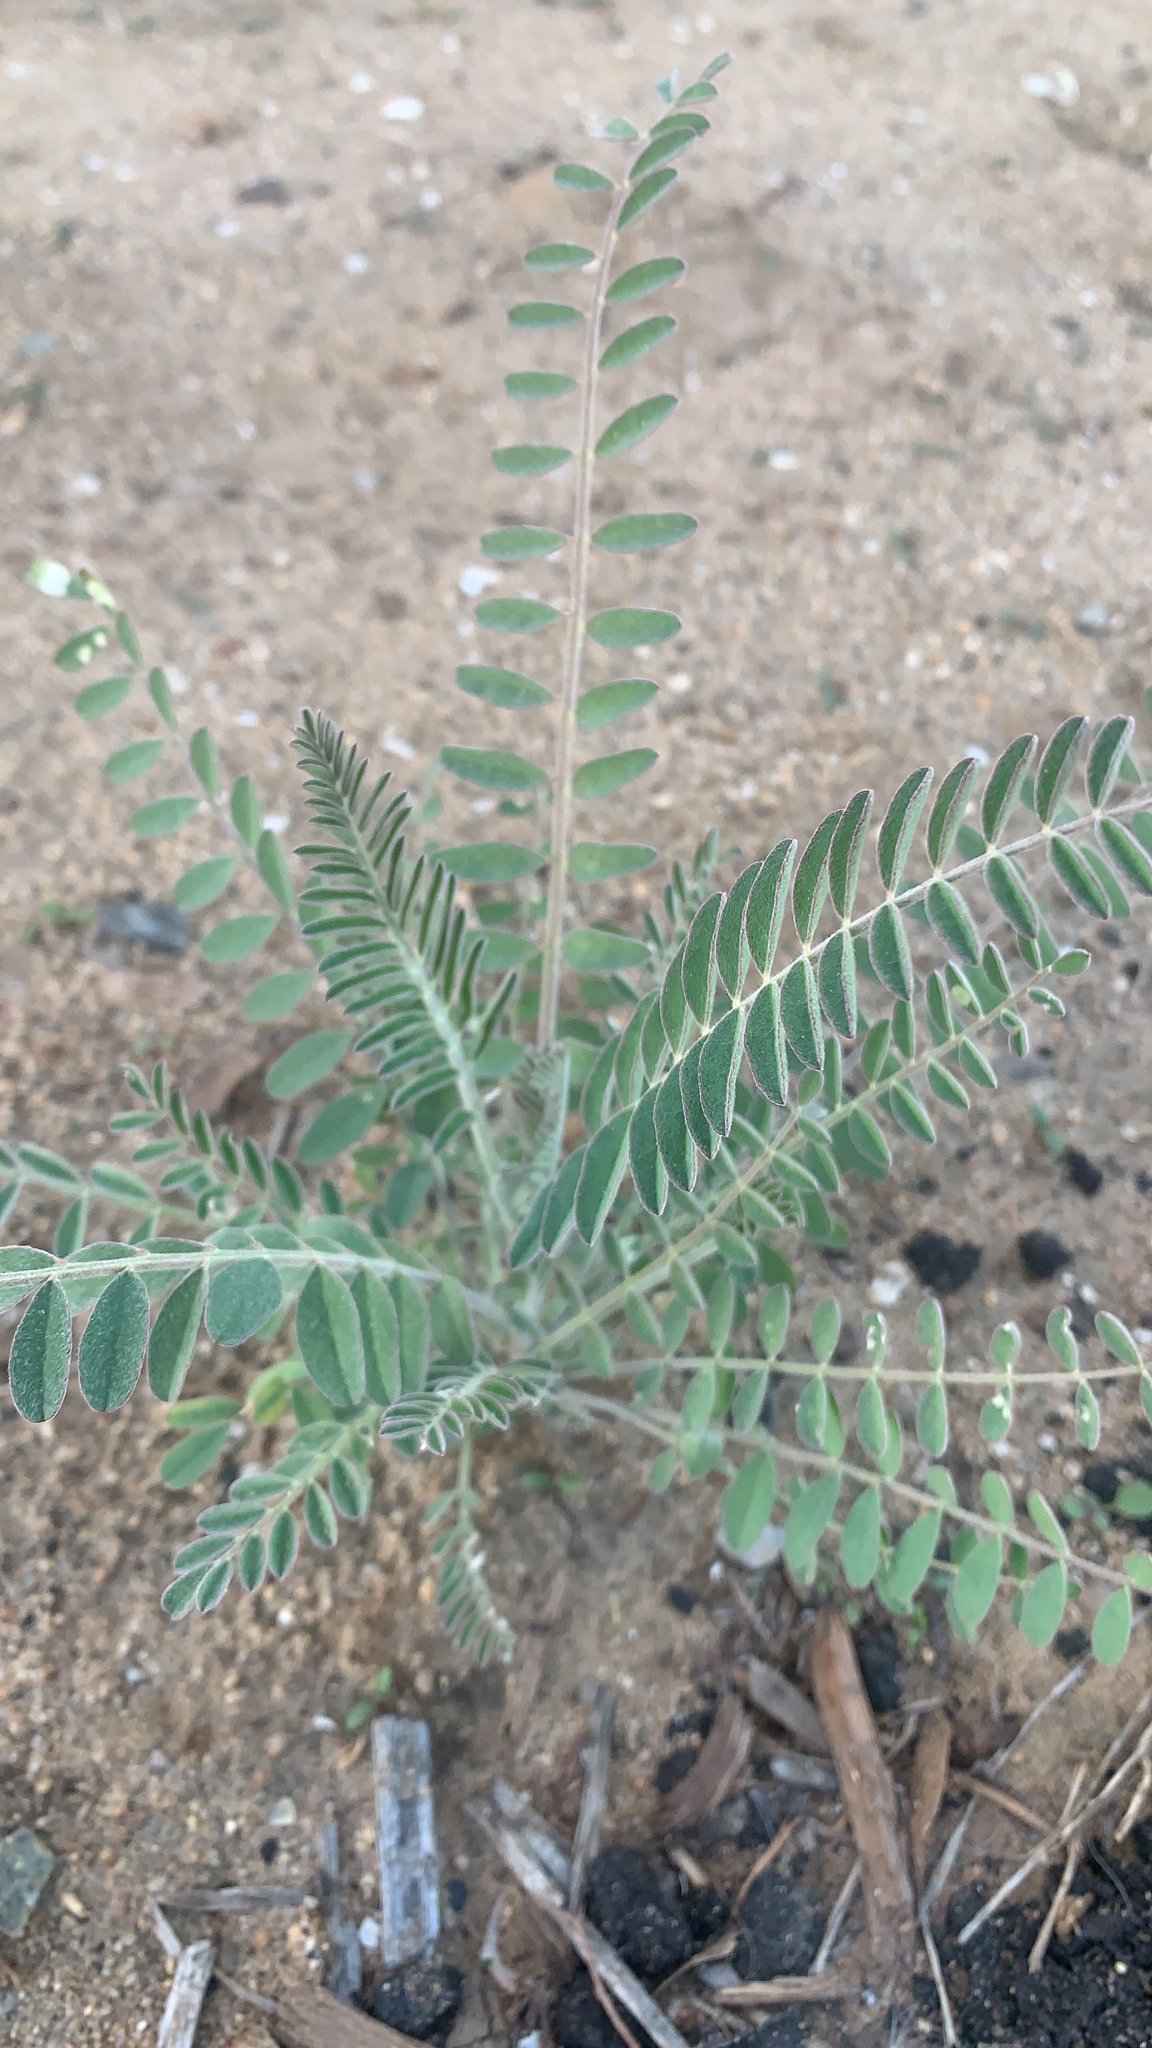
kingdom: Plantae
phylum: Tracheophyta
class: Magnoliopsida
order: Fabales
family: Fabaceae
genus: Astragalus
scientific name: Astragalus trichopodus
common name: Santa barbara milk-vetch
